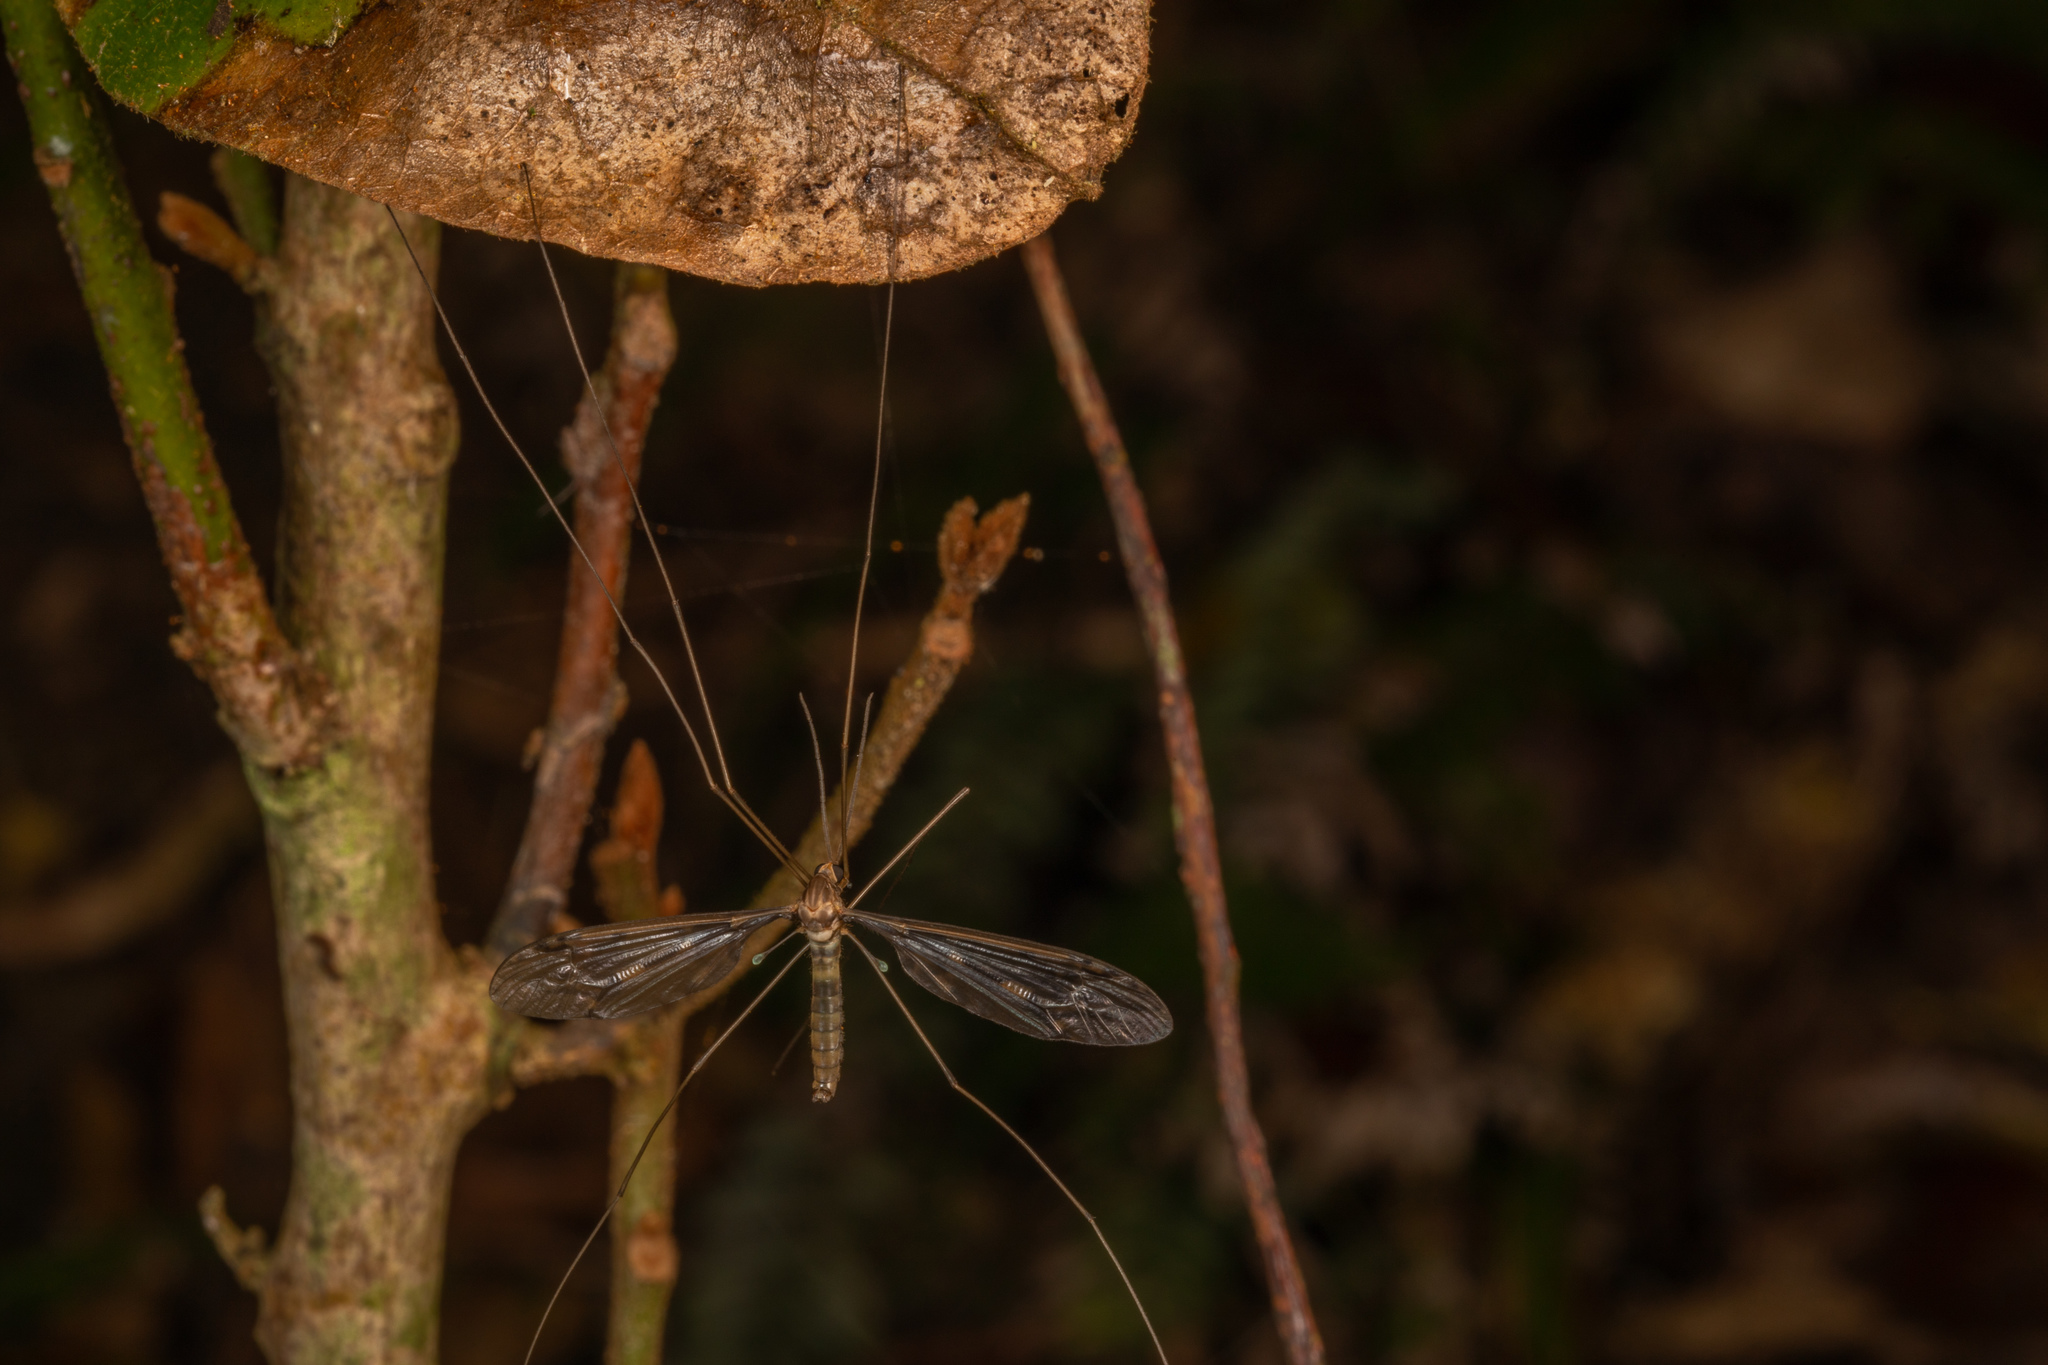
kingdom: Animalia
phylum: Arthropoda
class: Insecta
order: Diptera
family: Tipulidae
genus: Leptotarsus
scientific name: Leptotarsus binotatus
